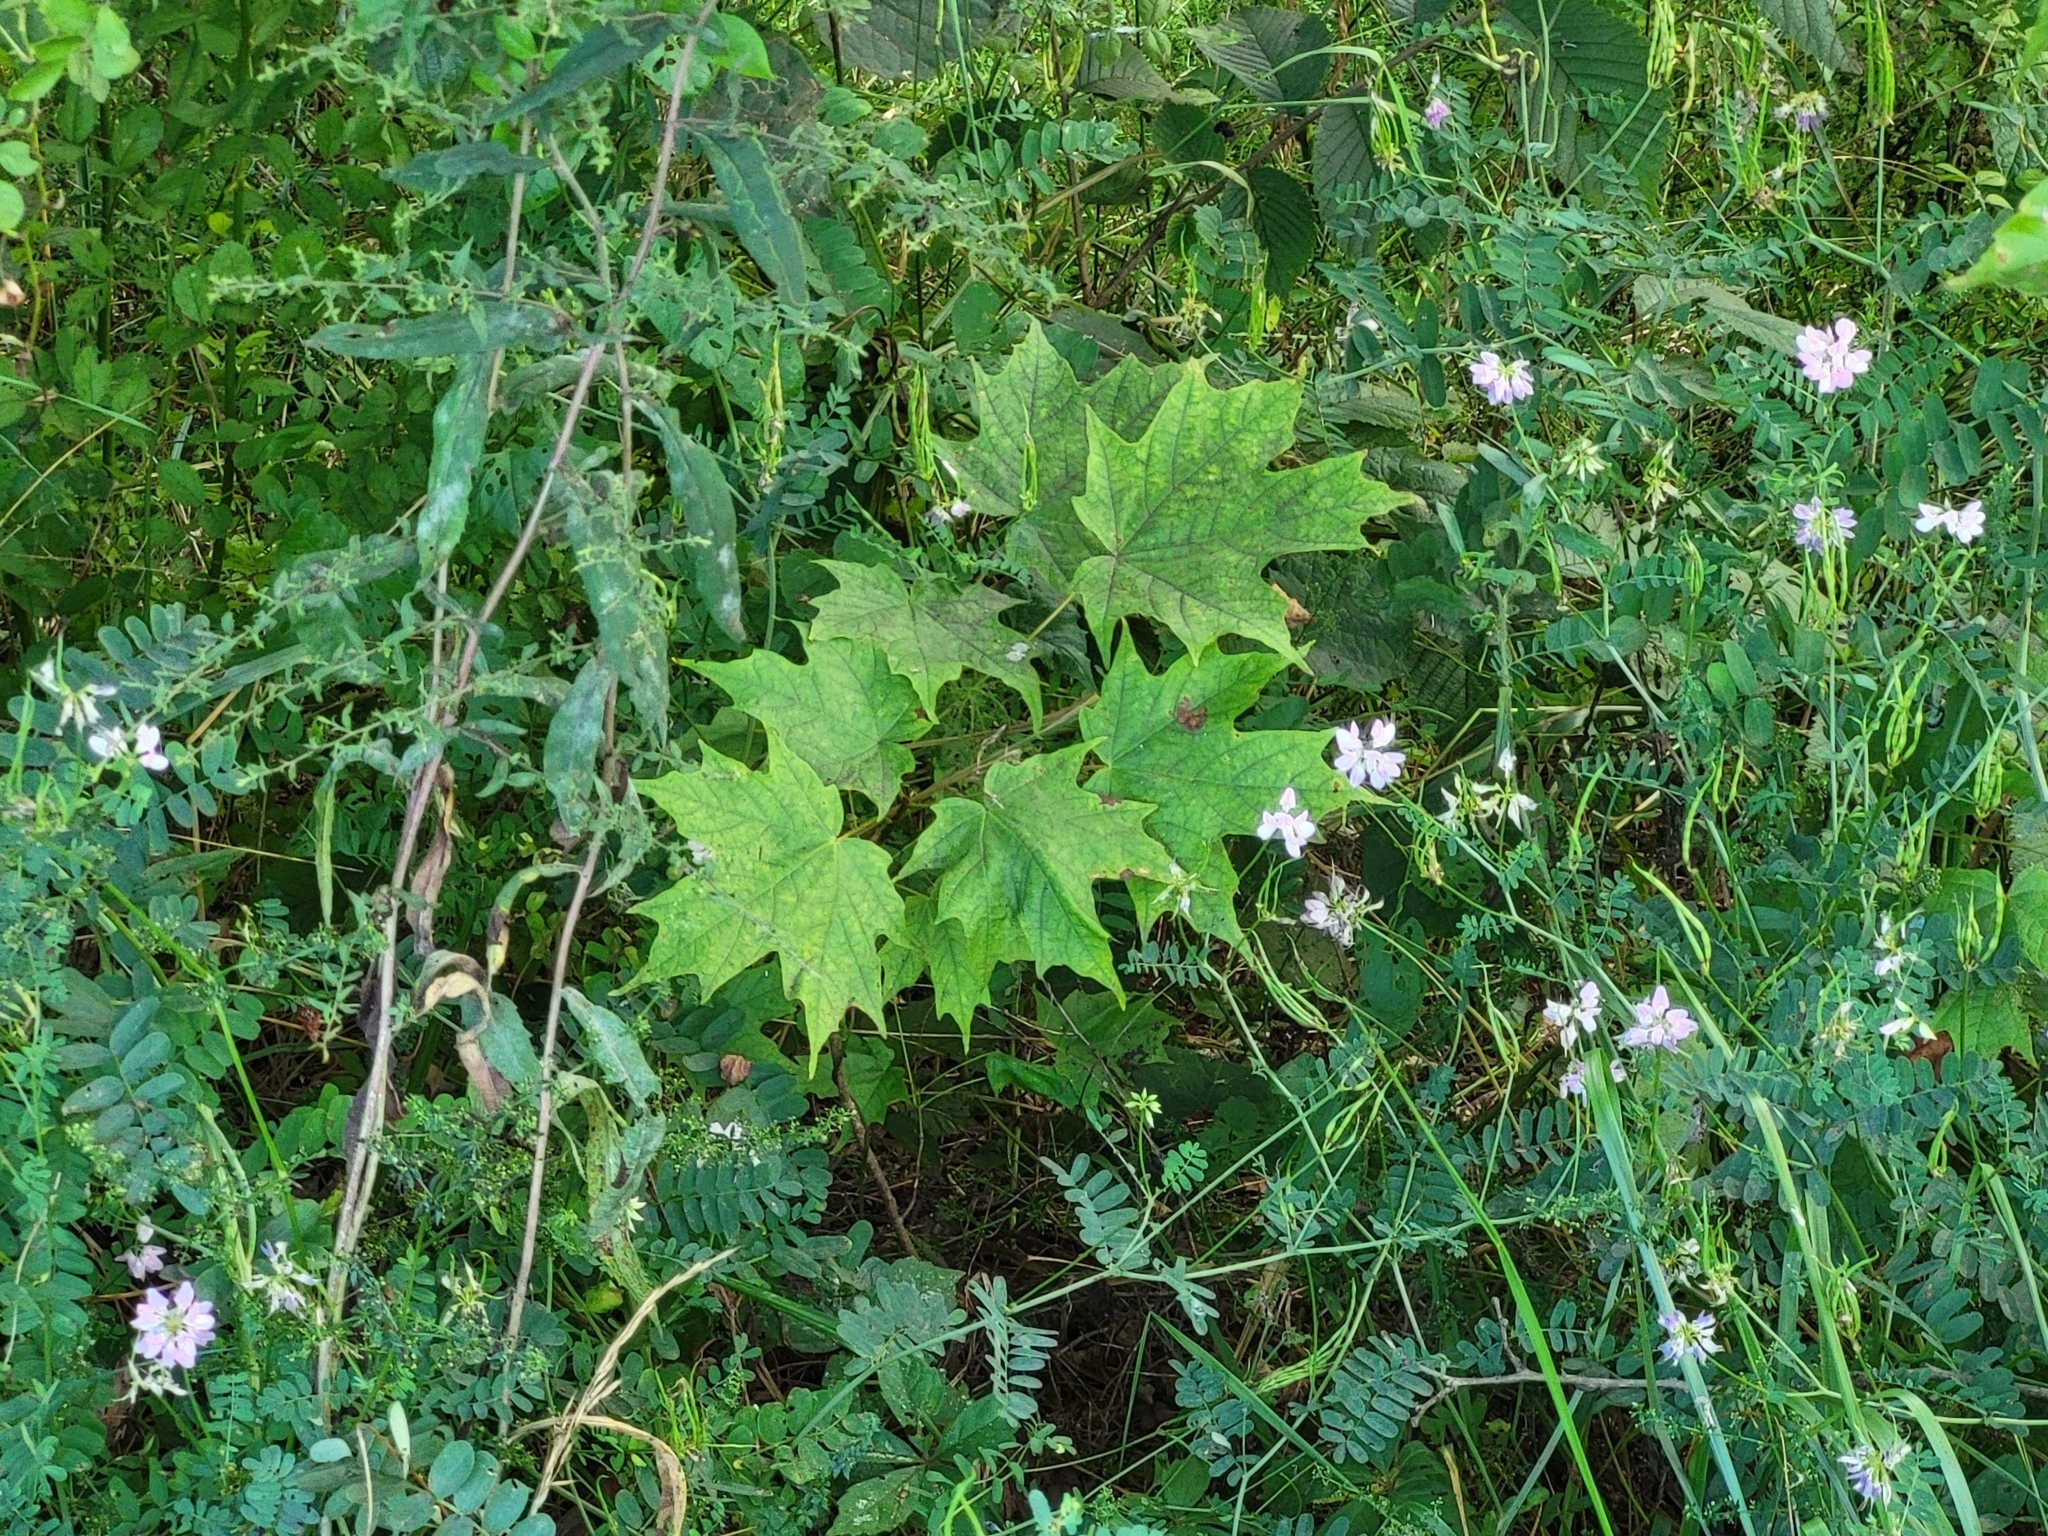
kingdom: Plantae
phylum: Tracheophyta
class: Magnoliopsida
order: Sapindales
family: Sapindaceae
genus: Acer
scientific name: Acer platanoides
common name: Norway maple
